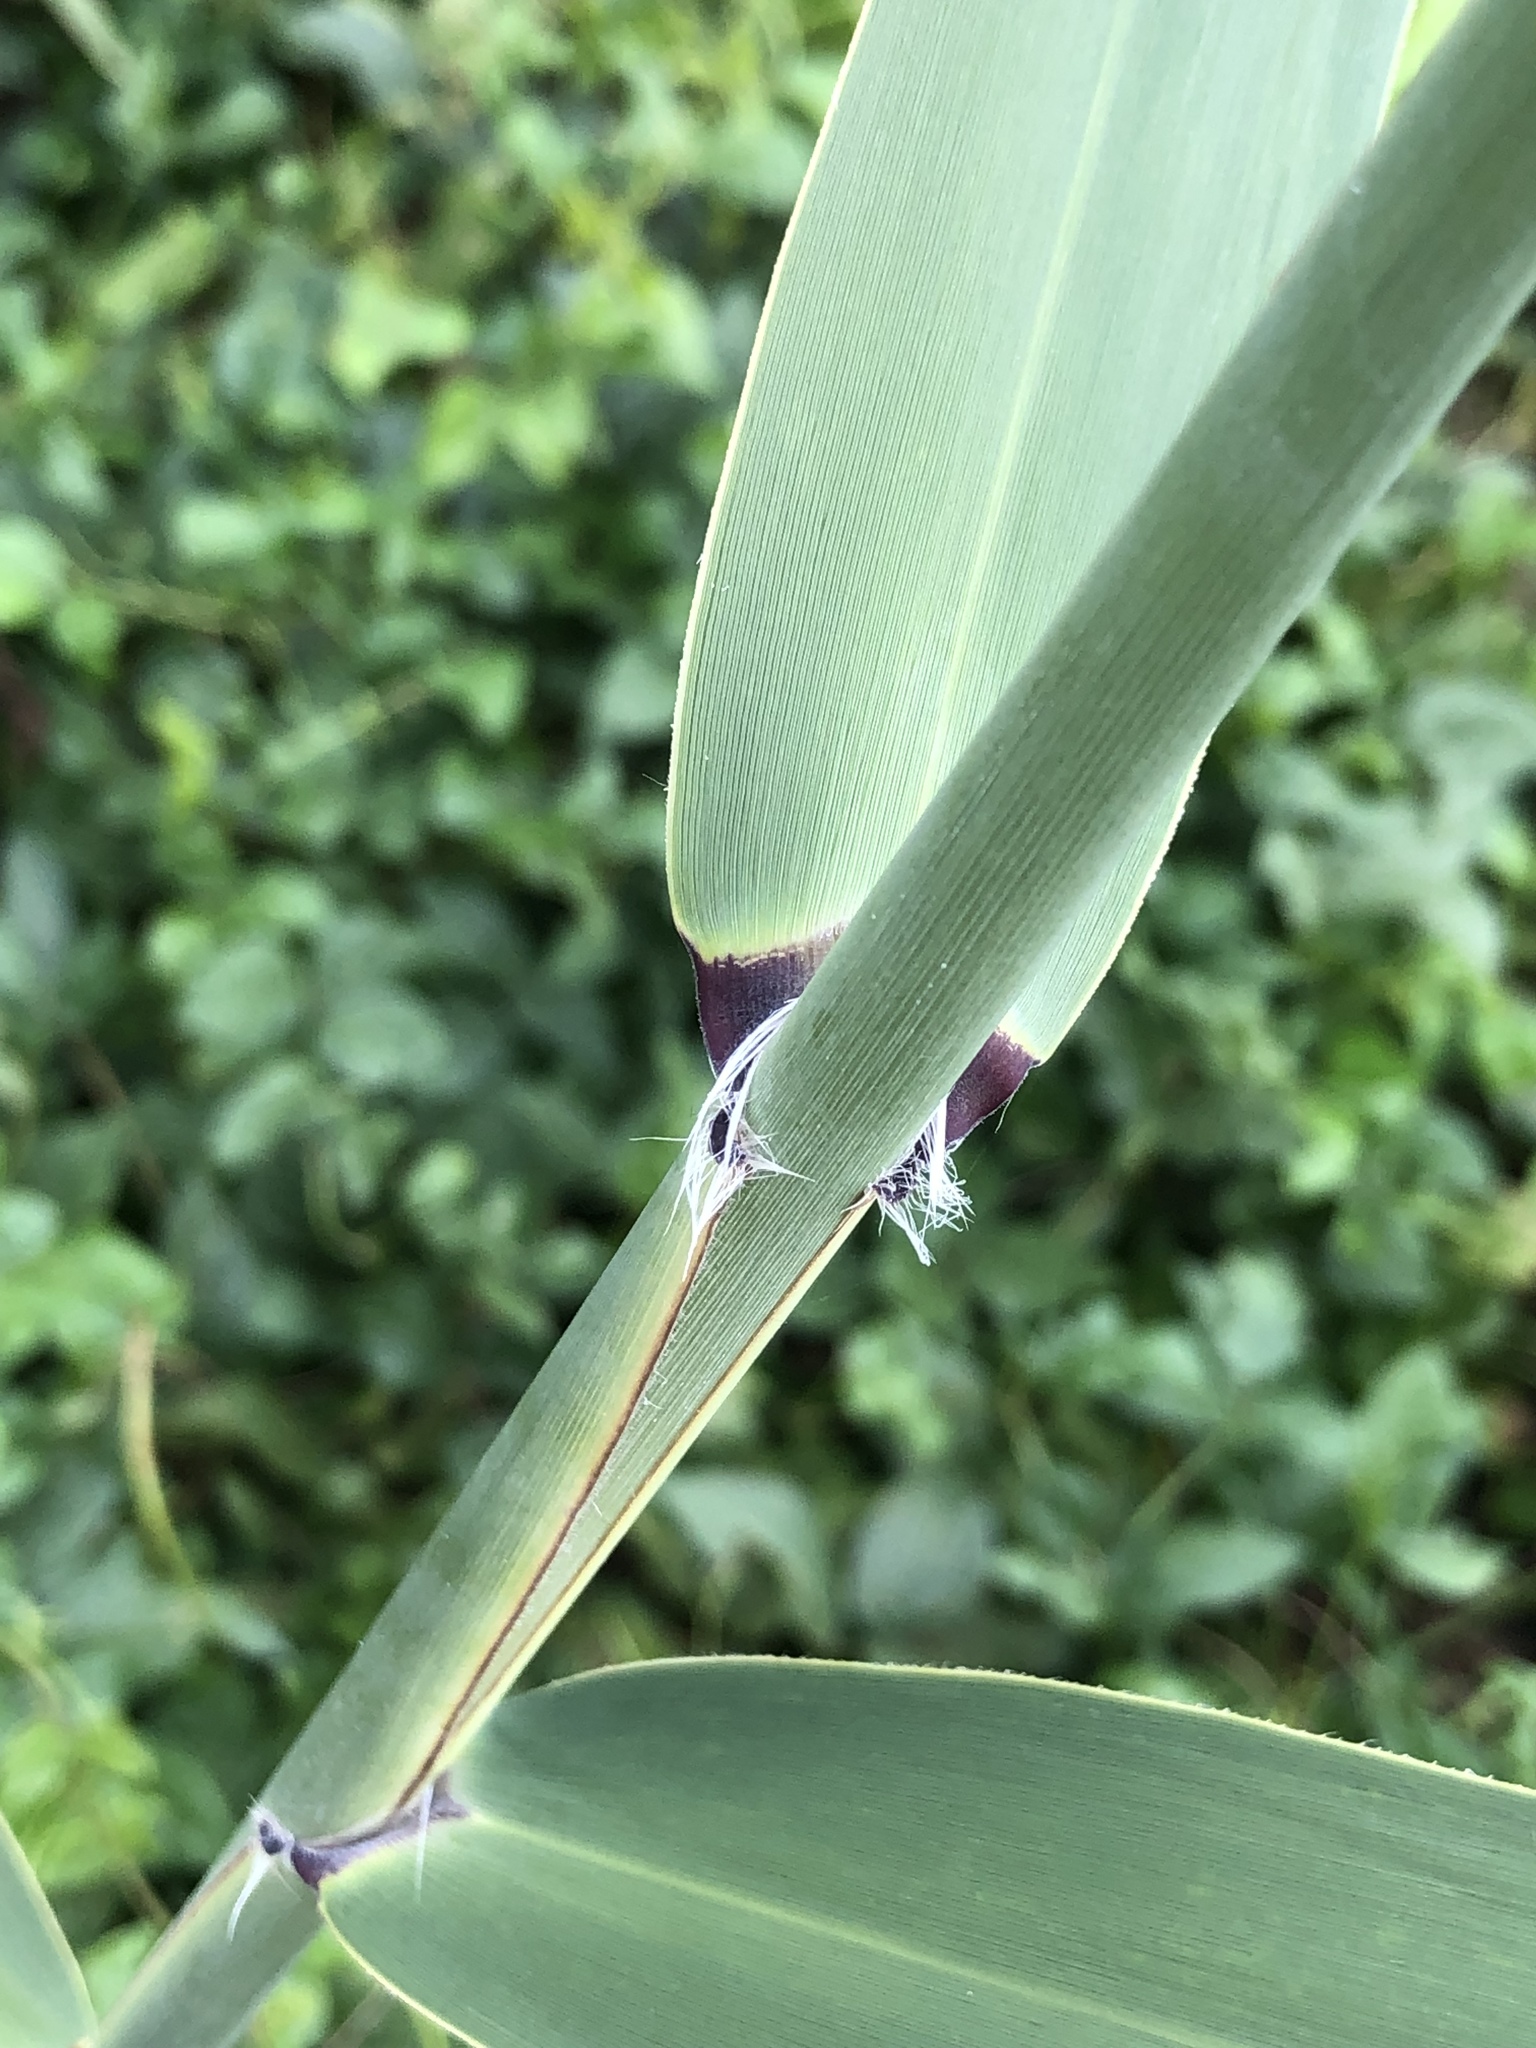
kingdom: Plantae
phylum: Tracheophyta
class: Liliopsida
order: Poales
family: Poaceae
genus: Phragmites
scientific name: Phragmites australis
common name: Common reed
